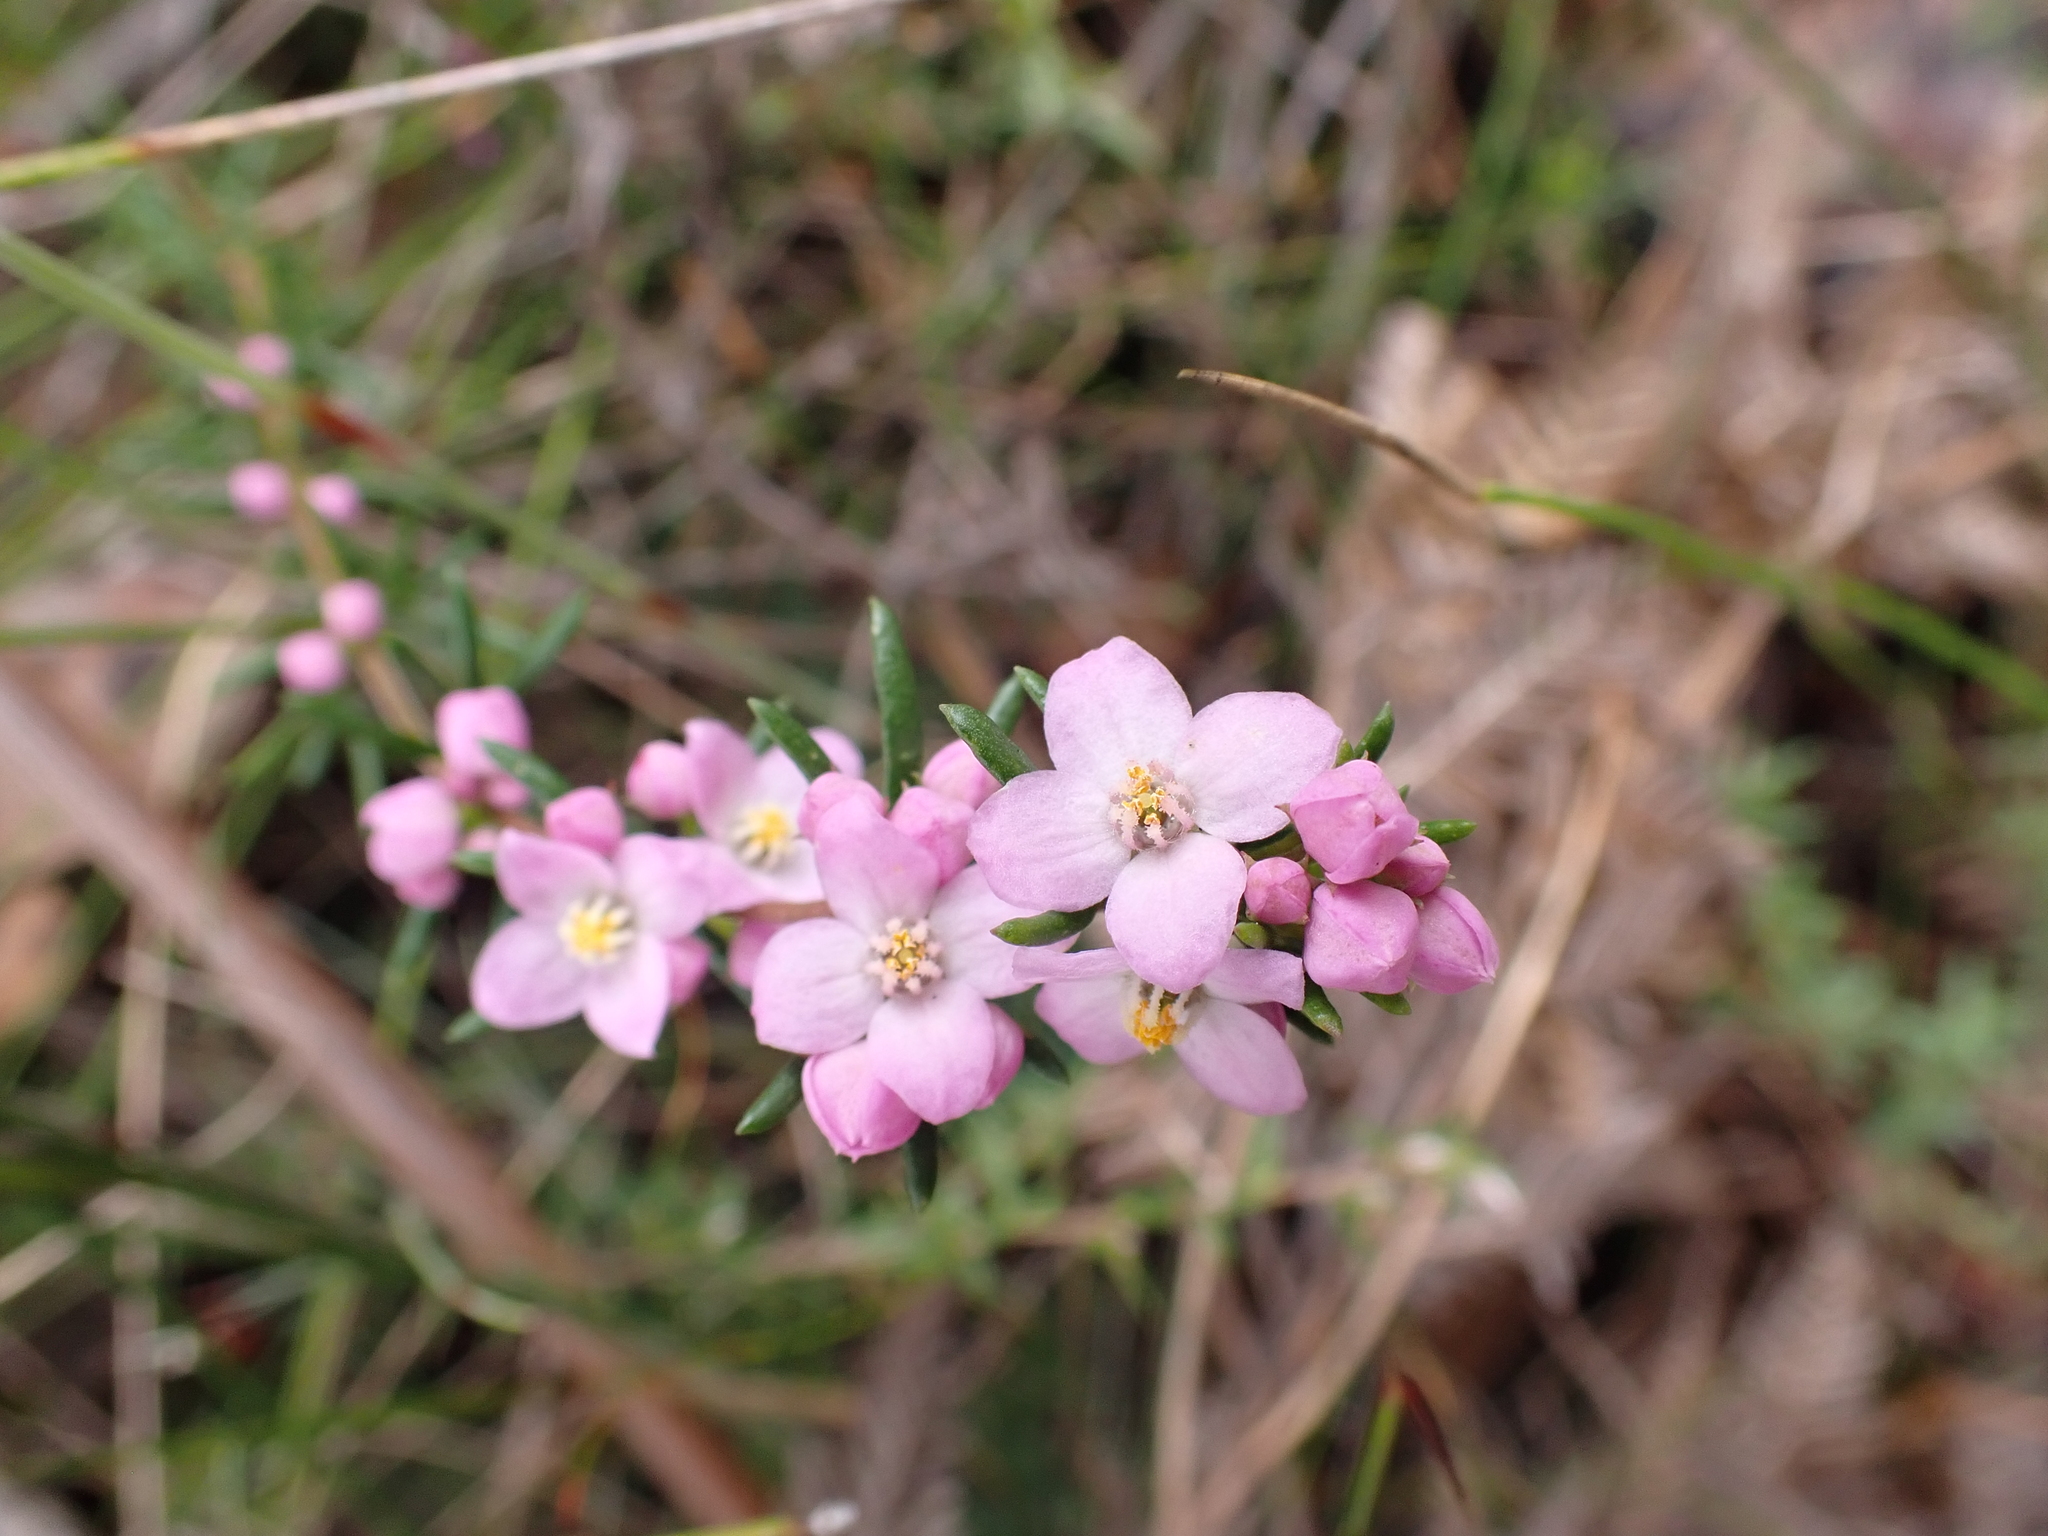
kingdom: Plantae
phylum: Tracheophyta
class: Magnoliopsida
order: Sapindales
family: Rutaceae
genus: Boronia
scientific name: Boronia pilosa
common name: Hairy boronia
